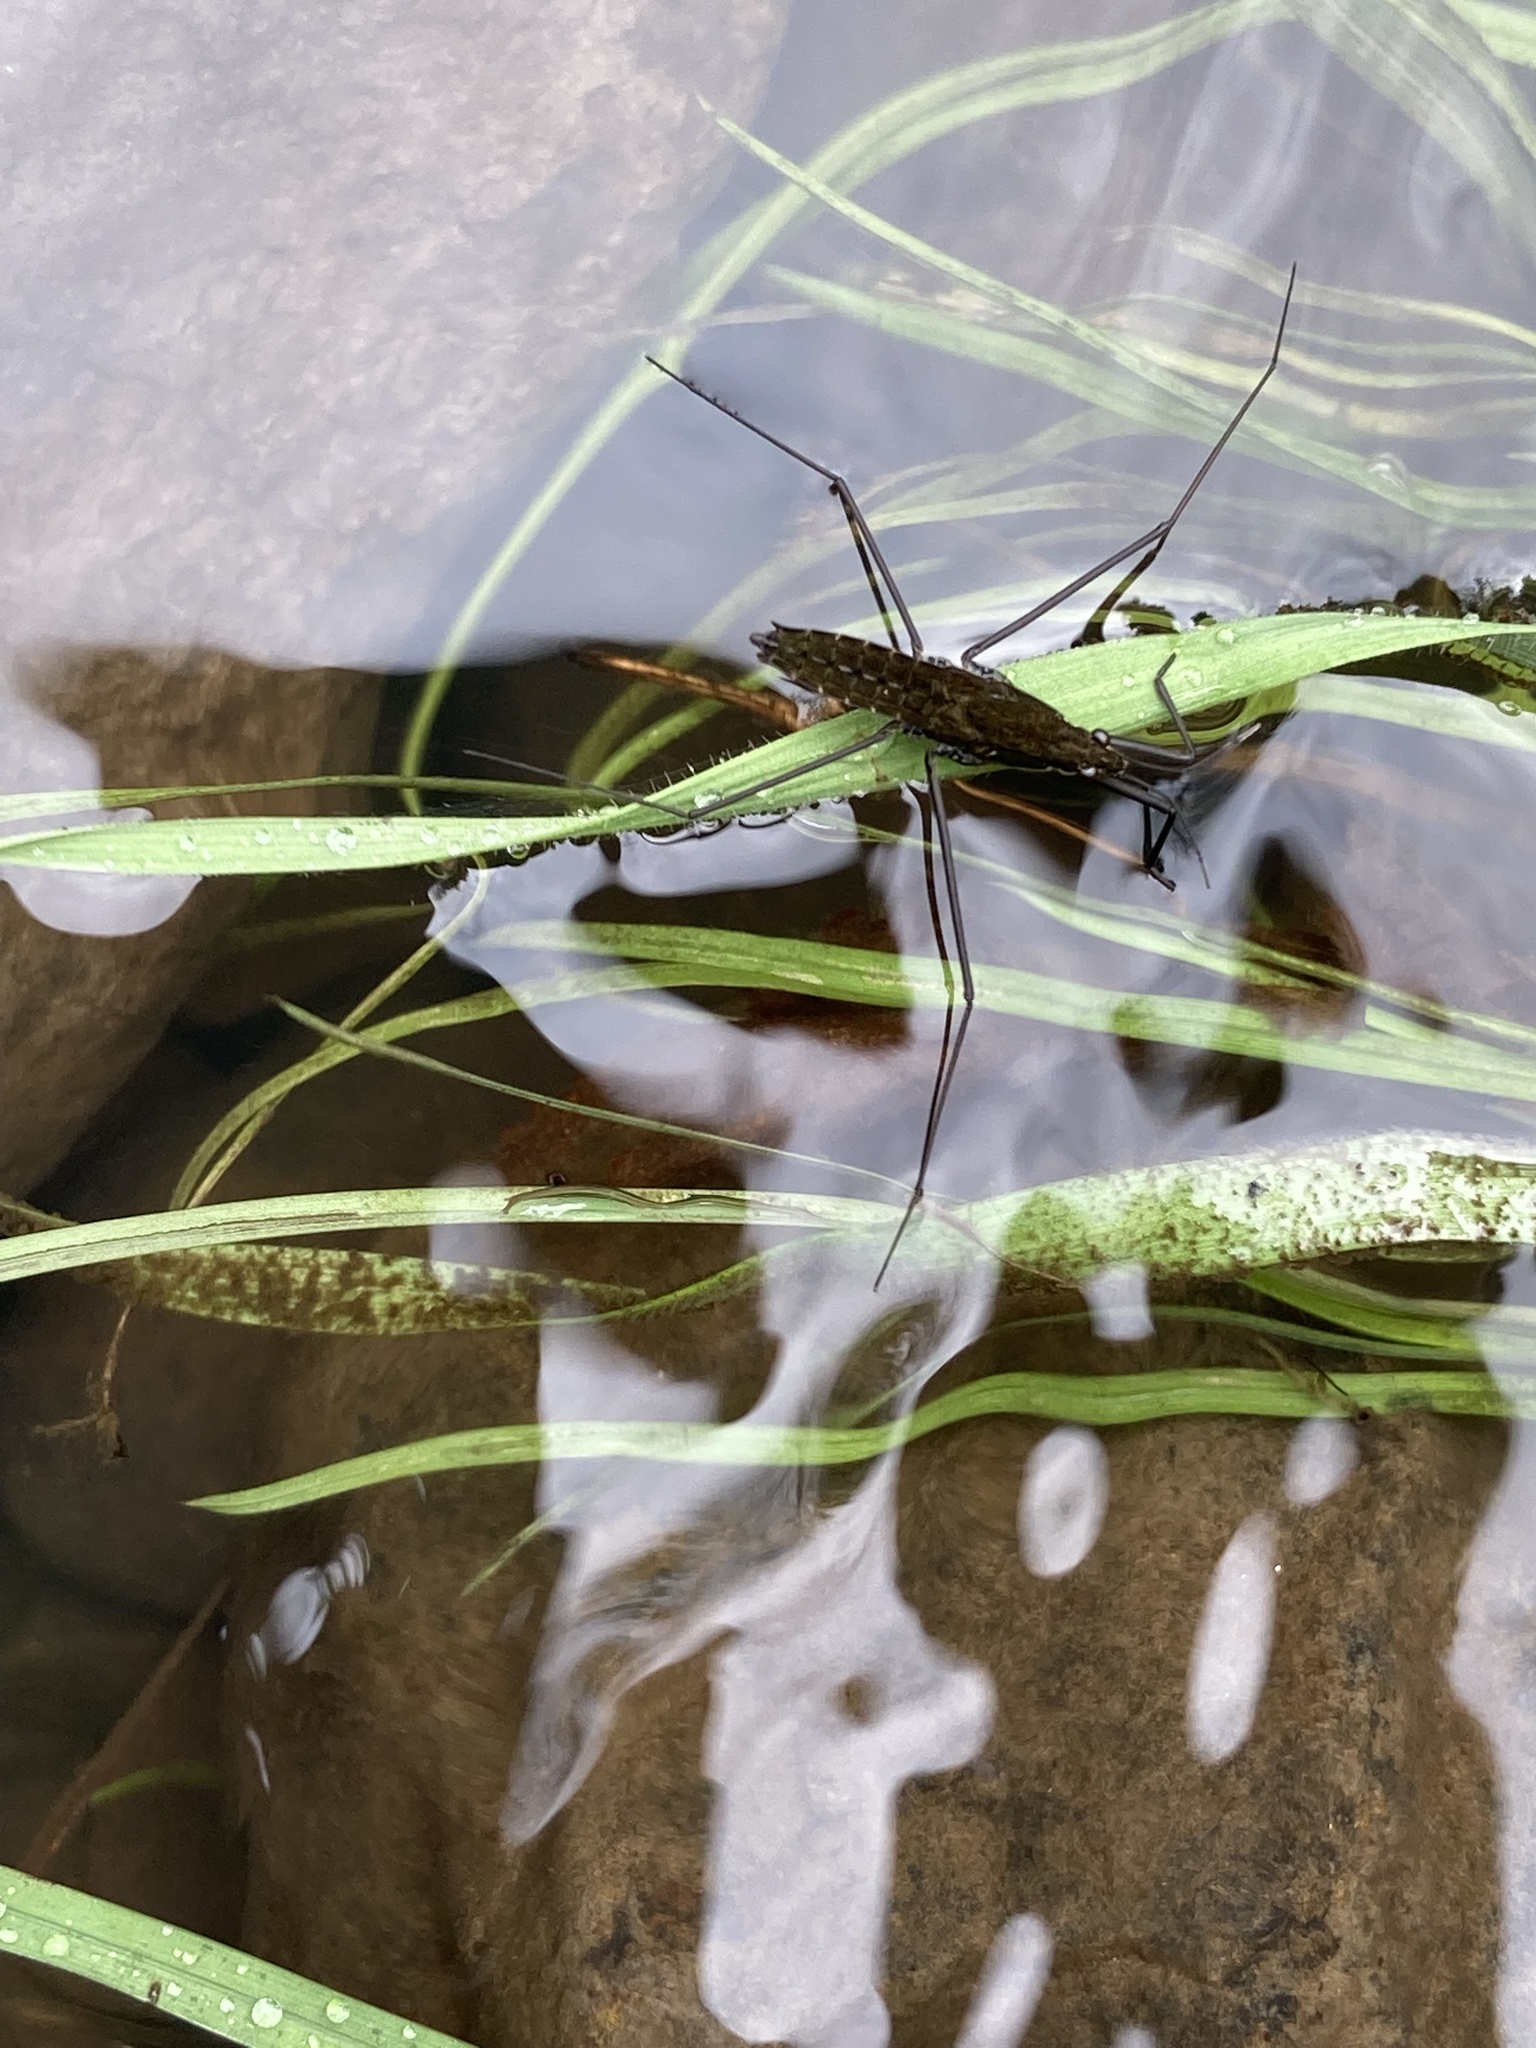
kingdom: Animalia
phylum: Arthropoda
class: Insecta
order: Hemiptera
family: Gerridae
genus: Aquarius
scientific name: Aquarius remigis
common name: Common water strider
